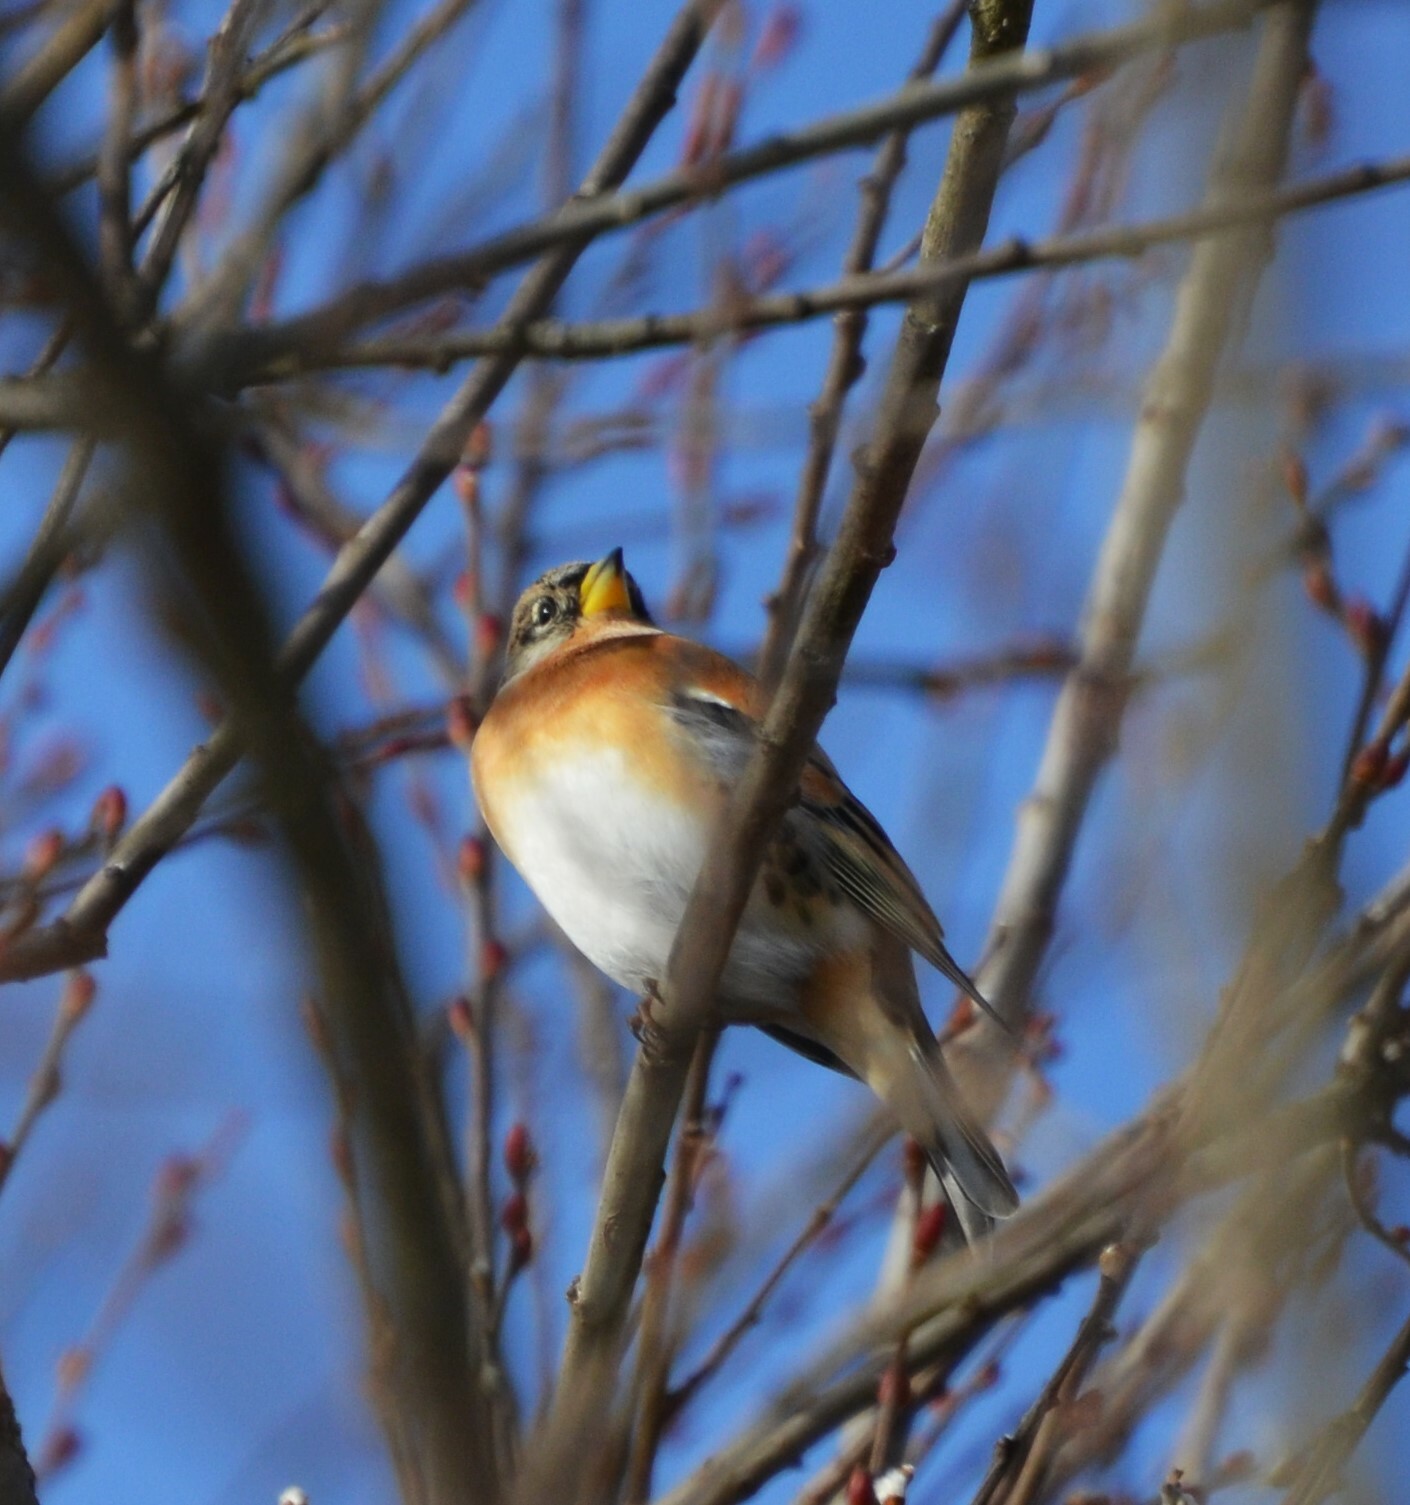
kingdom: Animalia
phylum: Chordata
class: Aves
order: Passeriformes
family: Fringillidae
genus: Fringilla
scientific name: Fringilla montifringilla
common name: Brambling
